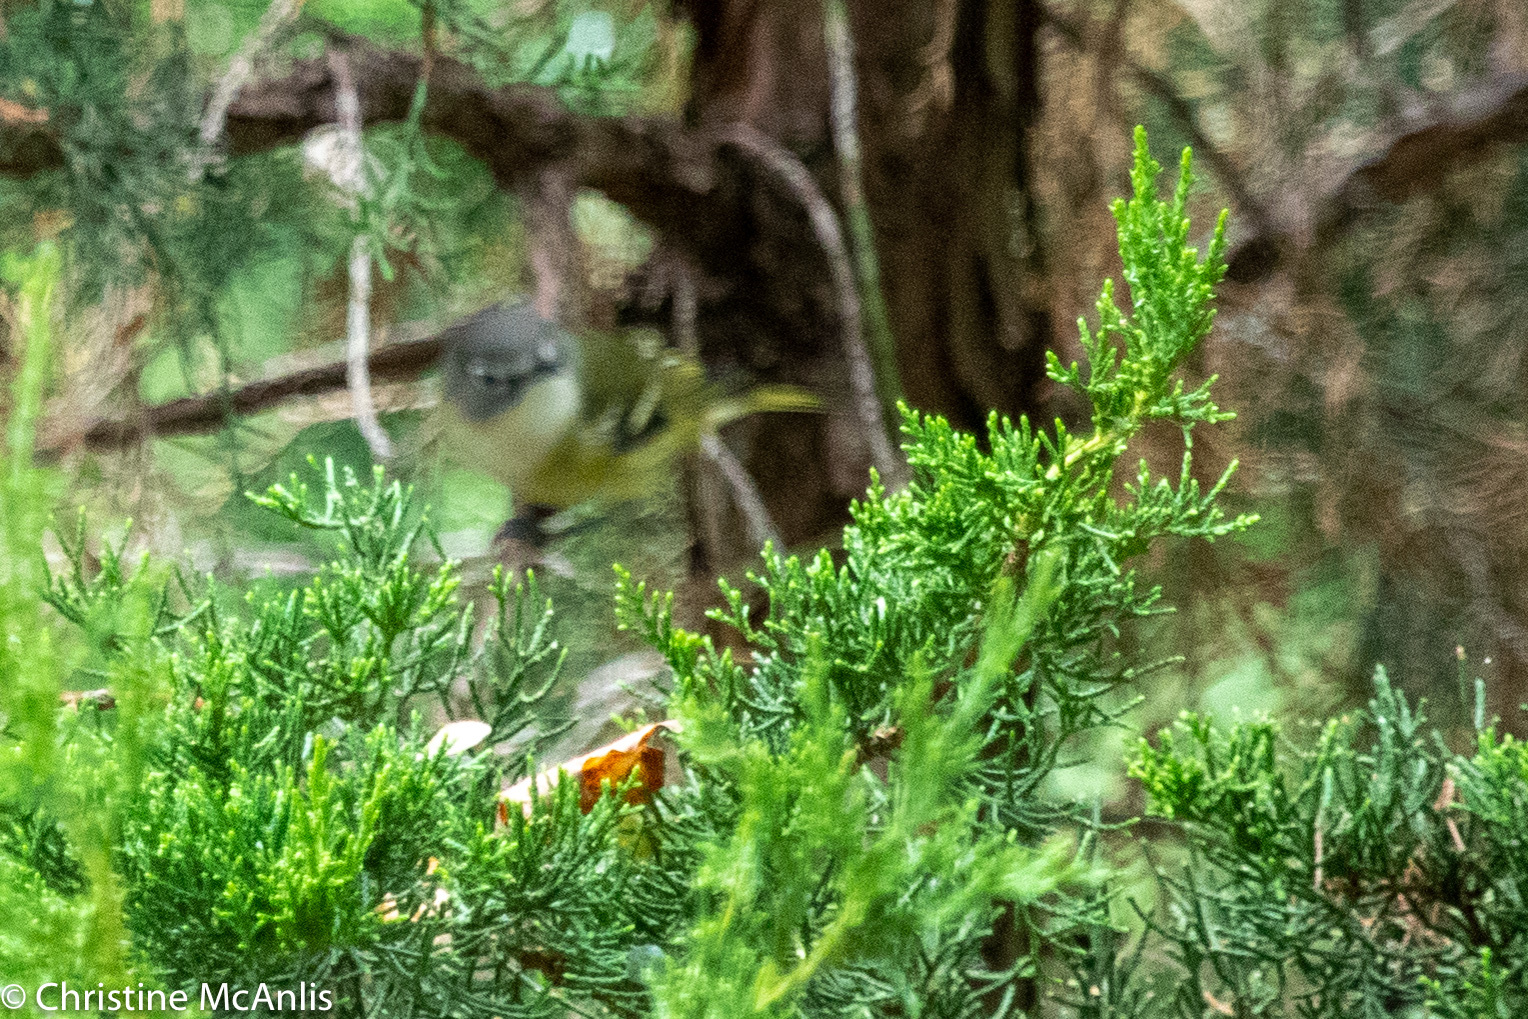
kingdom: Animalia
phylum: Chordata
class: Aves
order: Passeriformes
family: Vireonidae
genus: Vireo
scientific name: Vireo solitarius
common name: Blue-headed vireo
